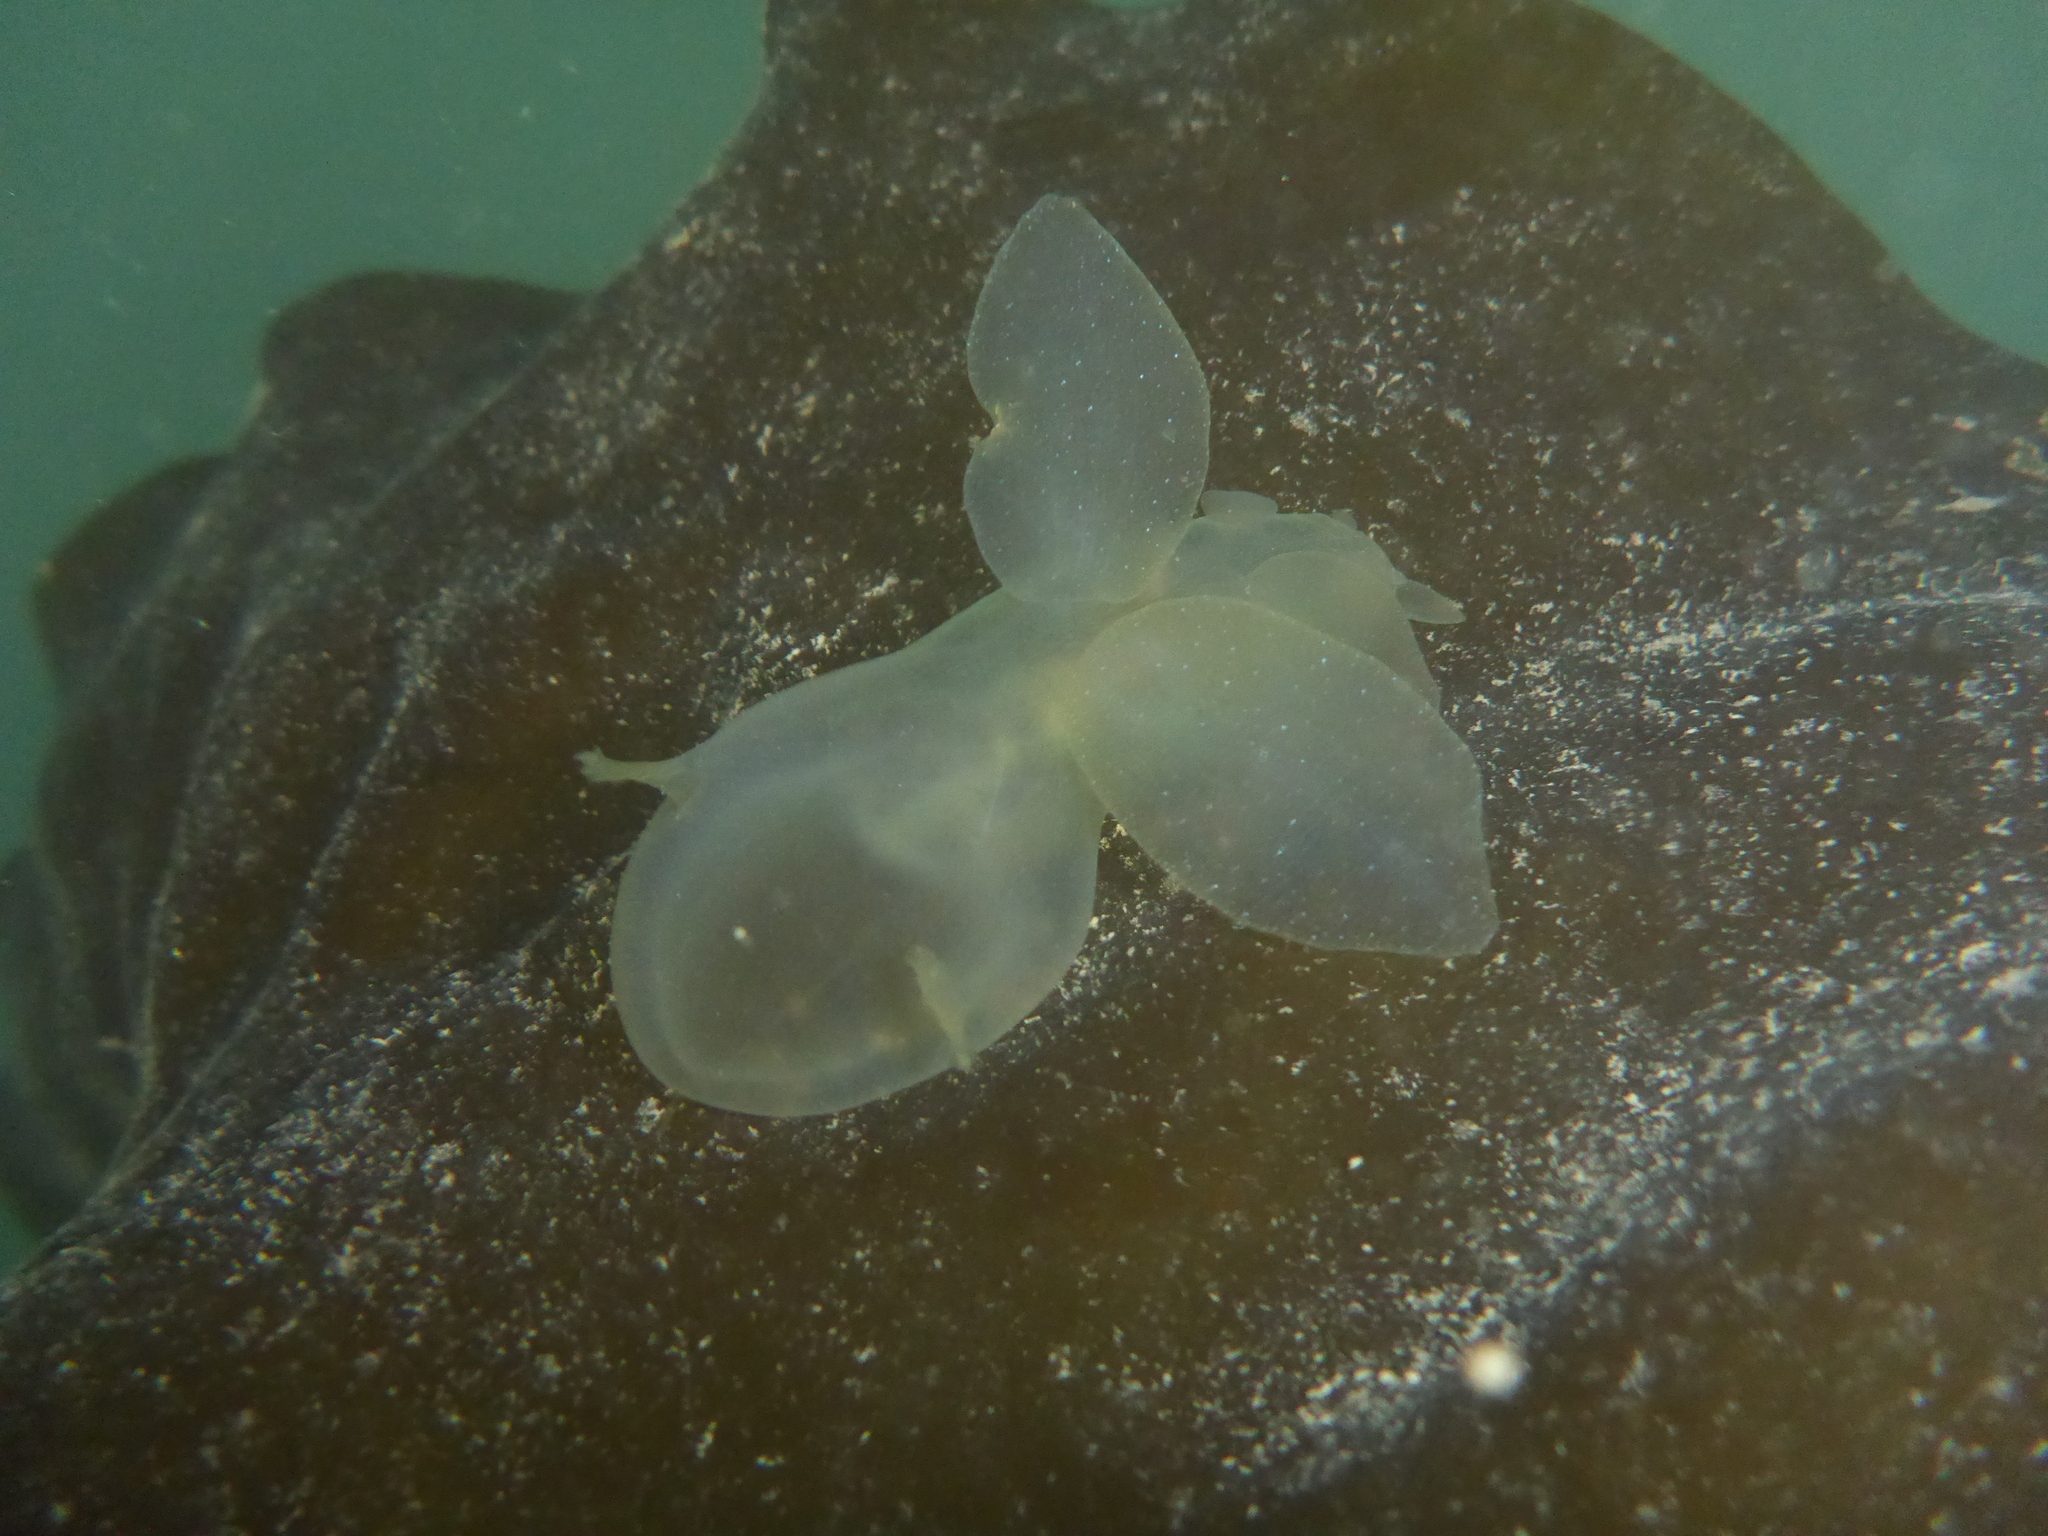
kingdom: Animalia
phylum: Mollusca
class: Gastropoda
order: Nudibranchia
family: Tethydidae
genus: Melibe
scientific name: Melibe leonina
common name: Lion nudibranch
